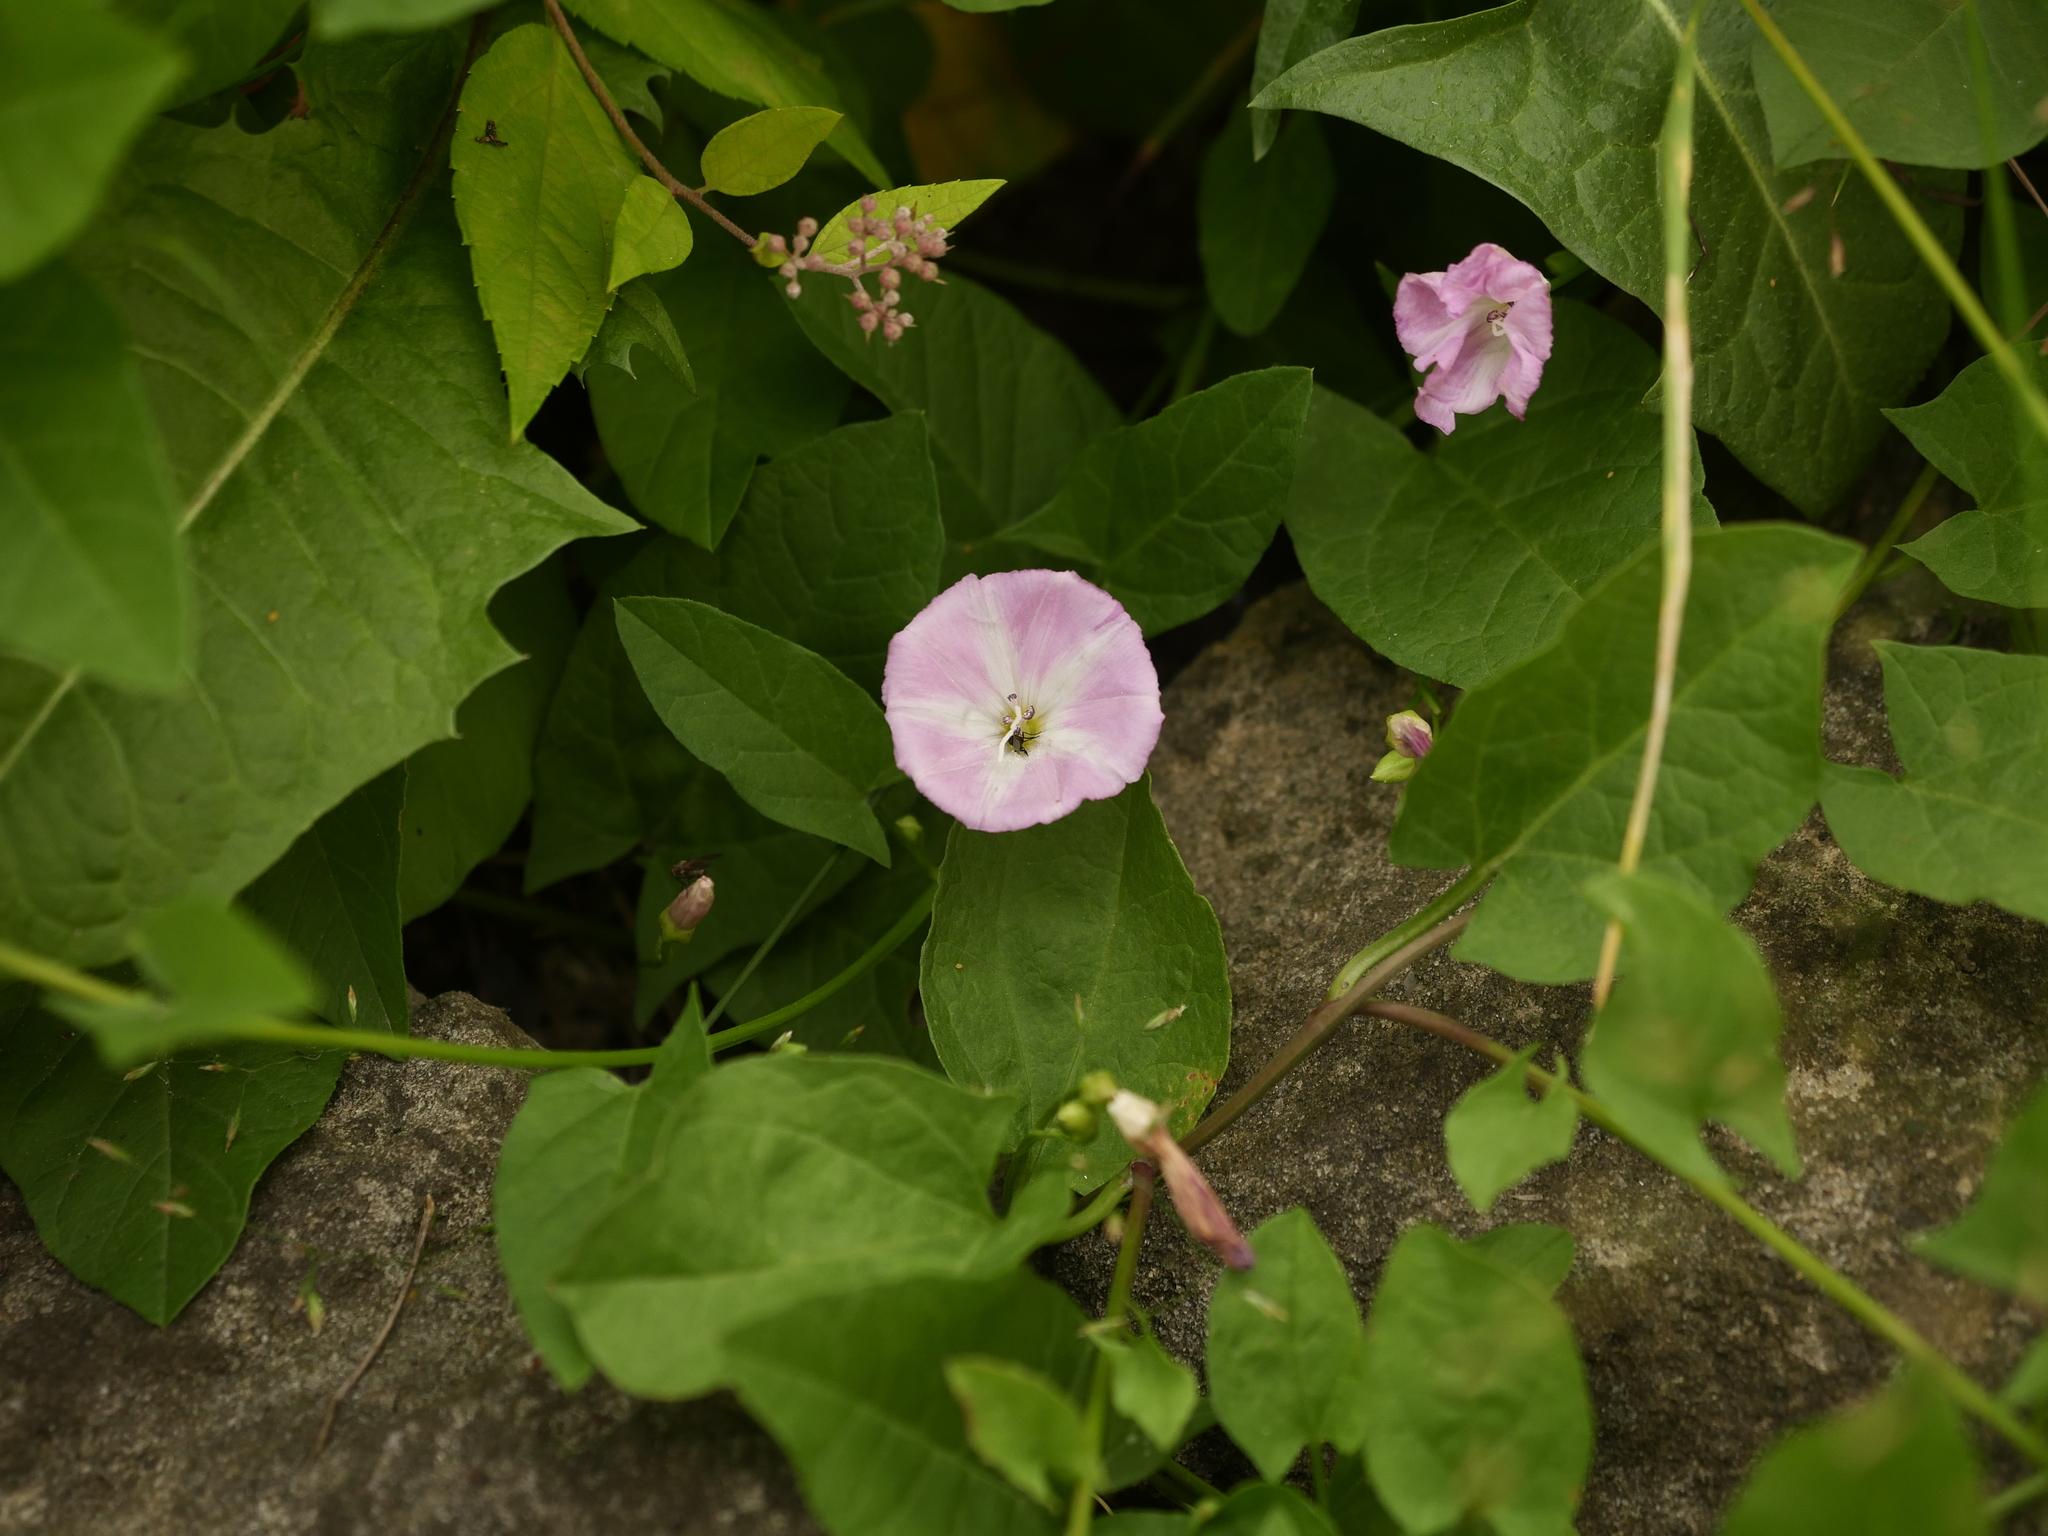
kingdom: Plantae
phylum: Tracheophyta
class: Magnoliopsida
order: Solanales
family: Convolvulaceae
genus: Convolvulus
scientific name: Convolvulus arvensis
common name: Field bindweed
